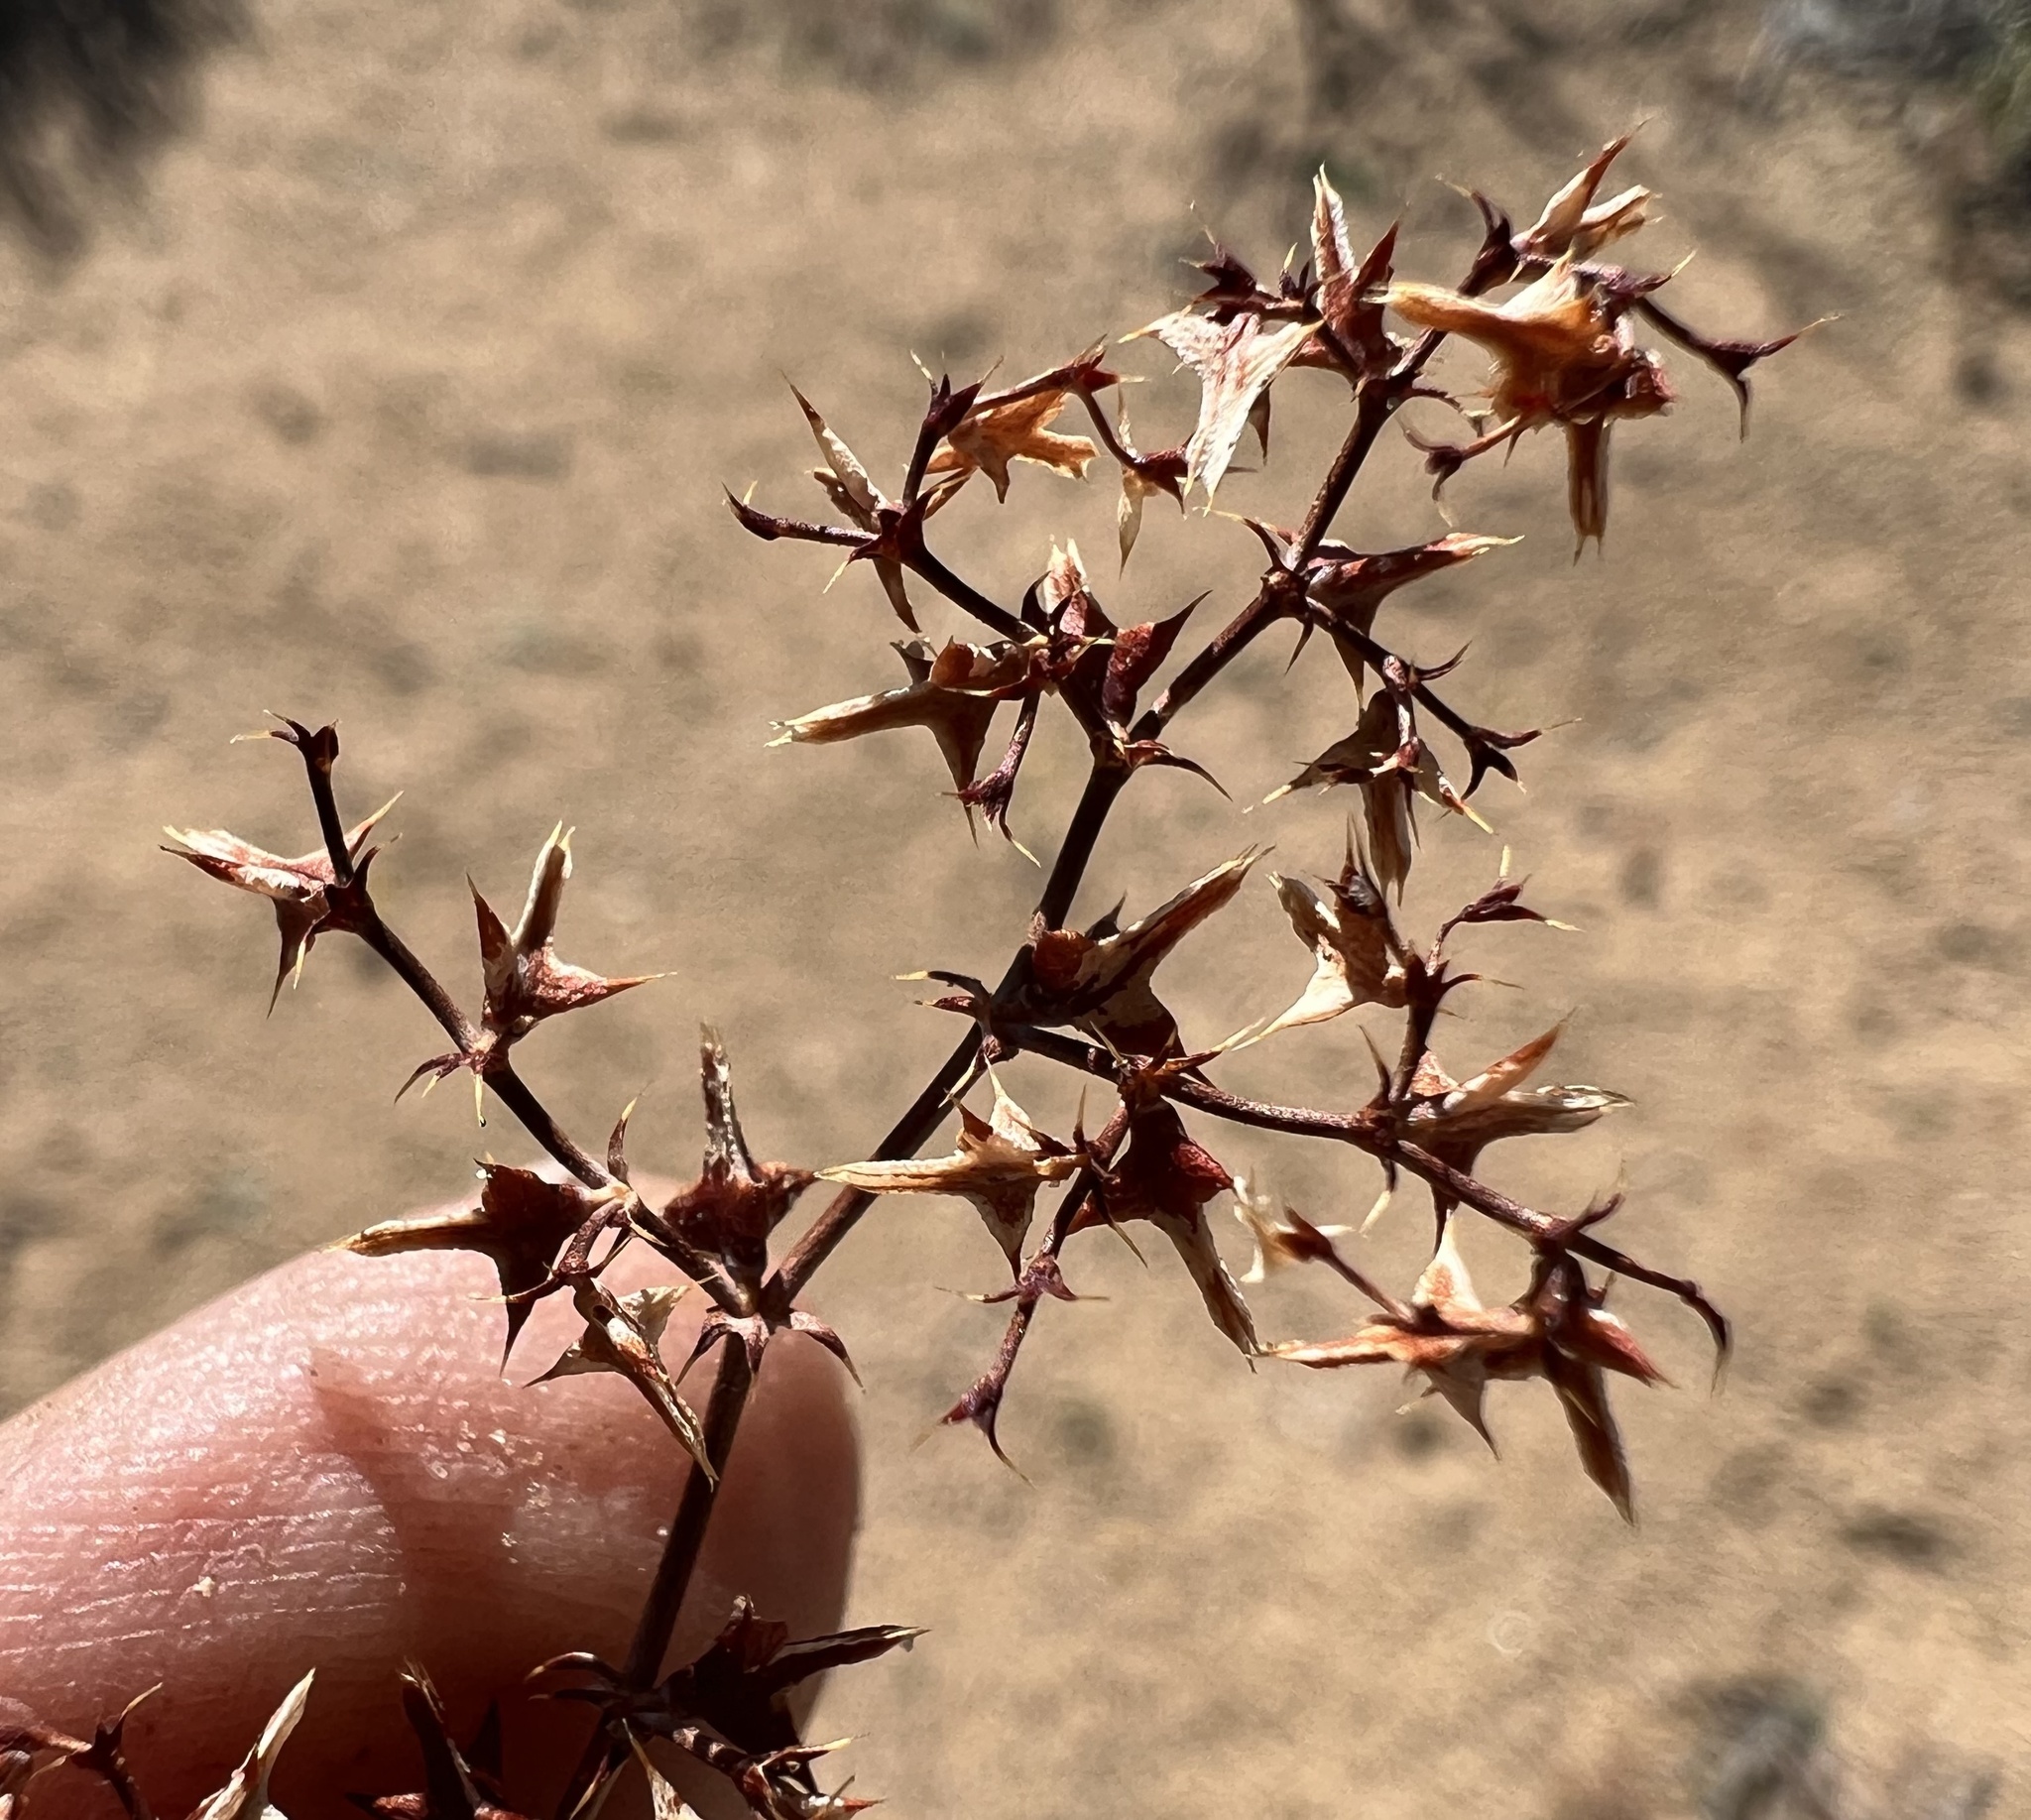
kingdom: Plantae
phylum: Tracheophyta
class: Magnoliopsida
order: Caryophyllales
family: Polygonaceae
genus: Centrostegia
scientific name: Centrostegia thurberi
